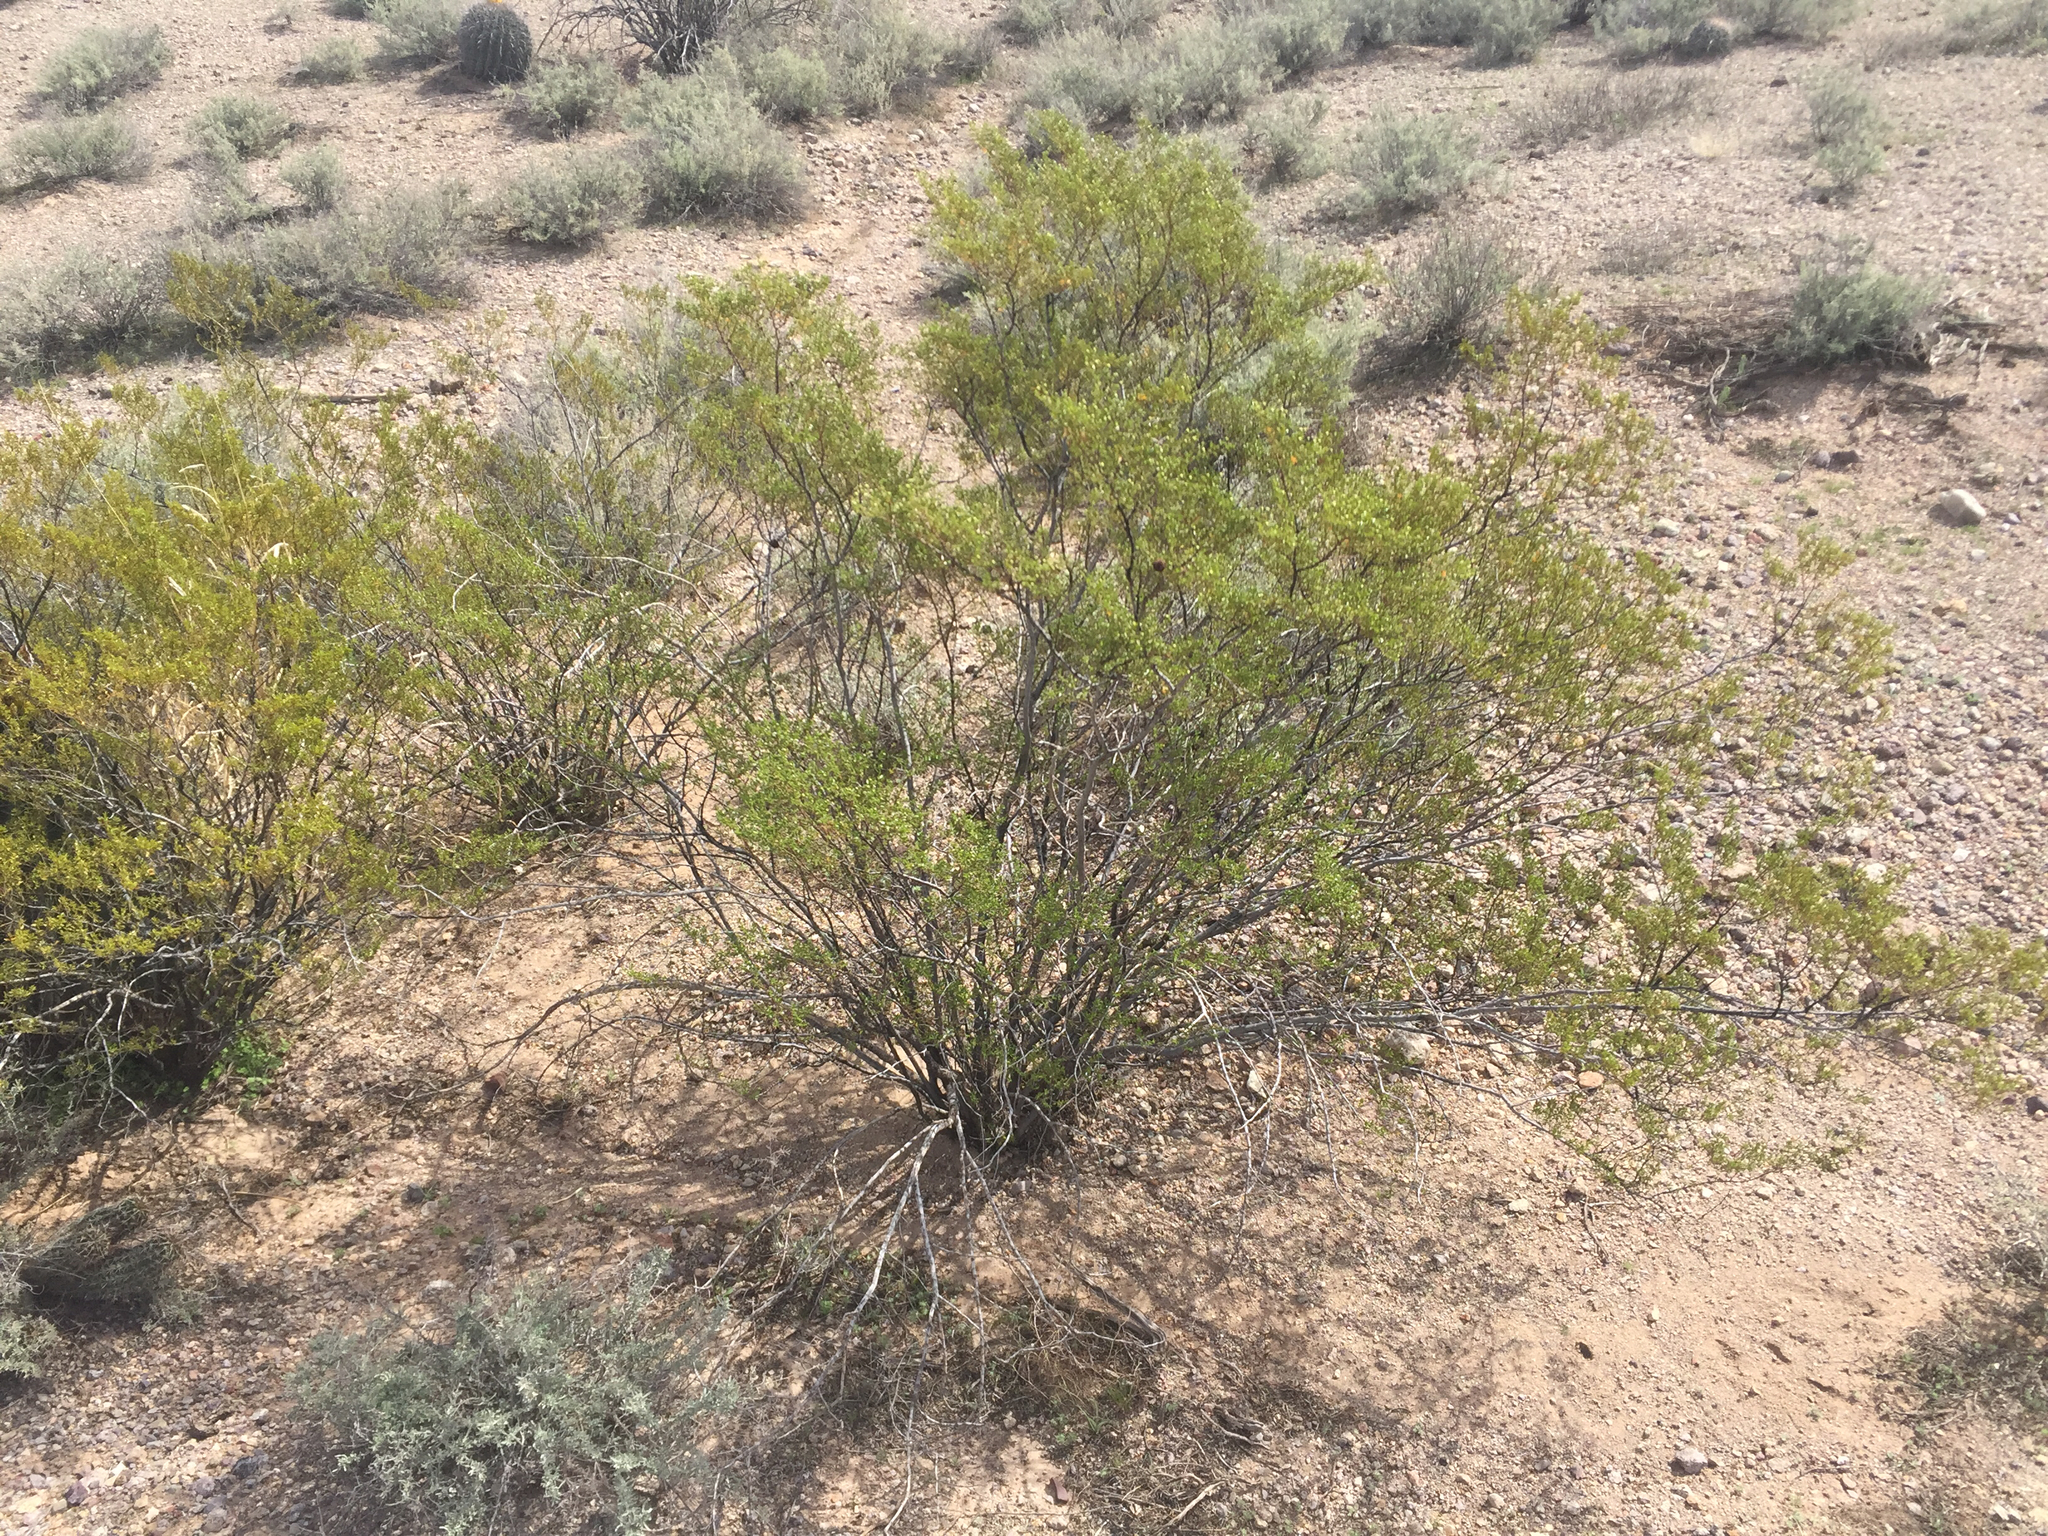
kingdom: Plantae
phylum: Tracheophyta
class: Magnoliopsida
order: Zygophyllales
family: Zygophyllaceae
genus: Larrea
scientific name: Larrea tridentata
